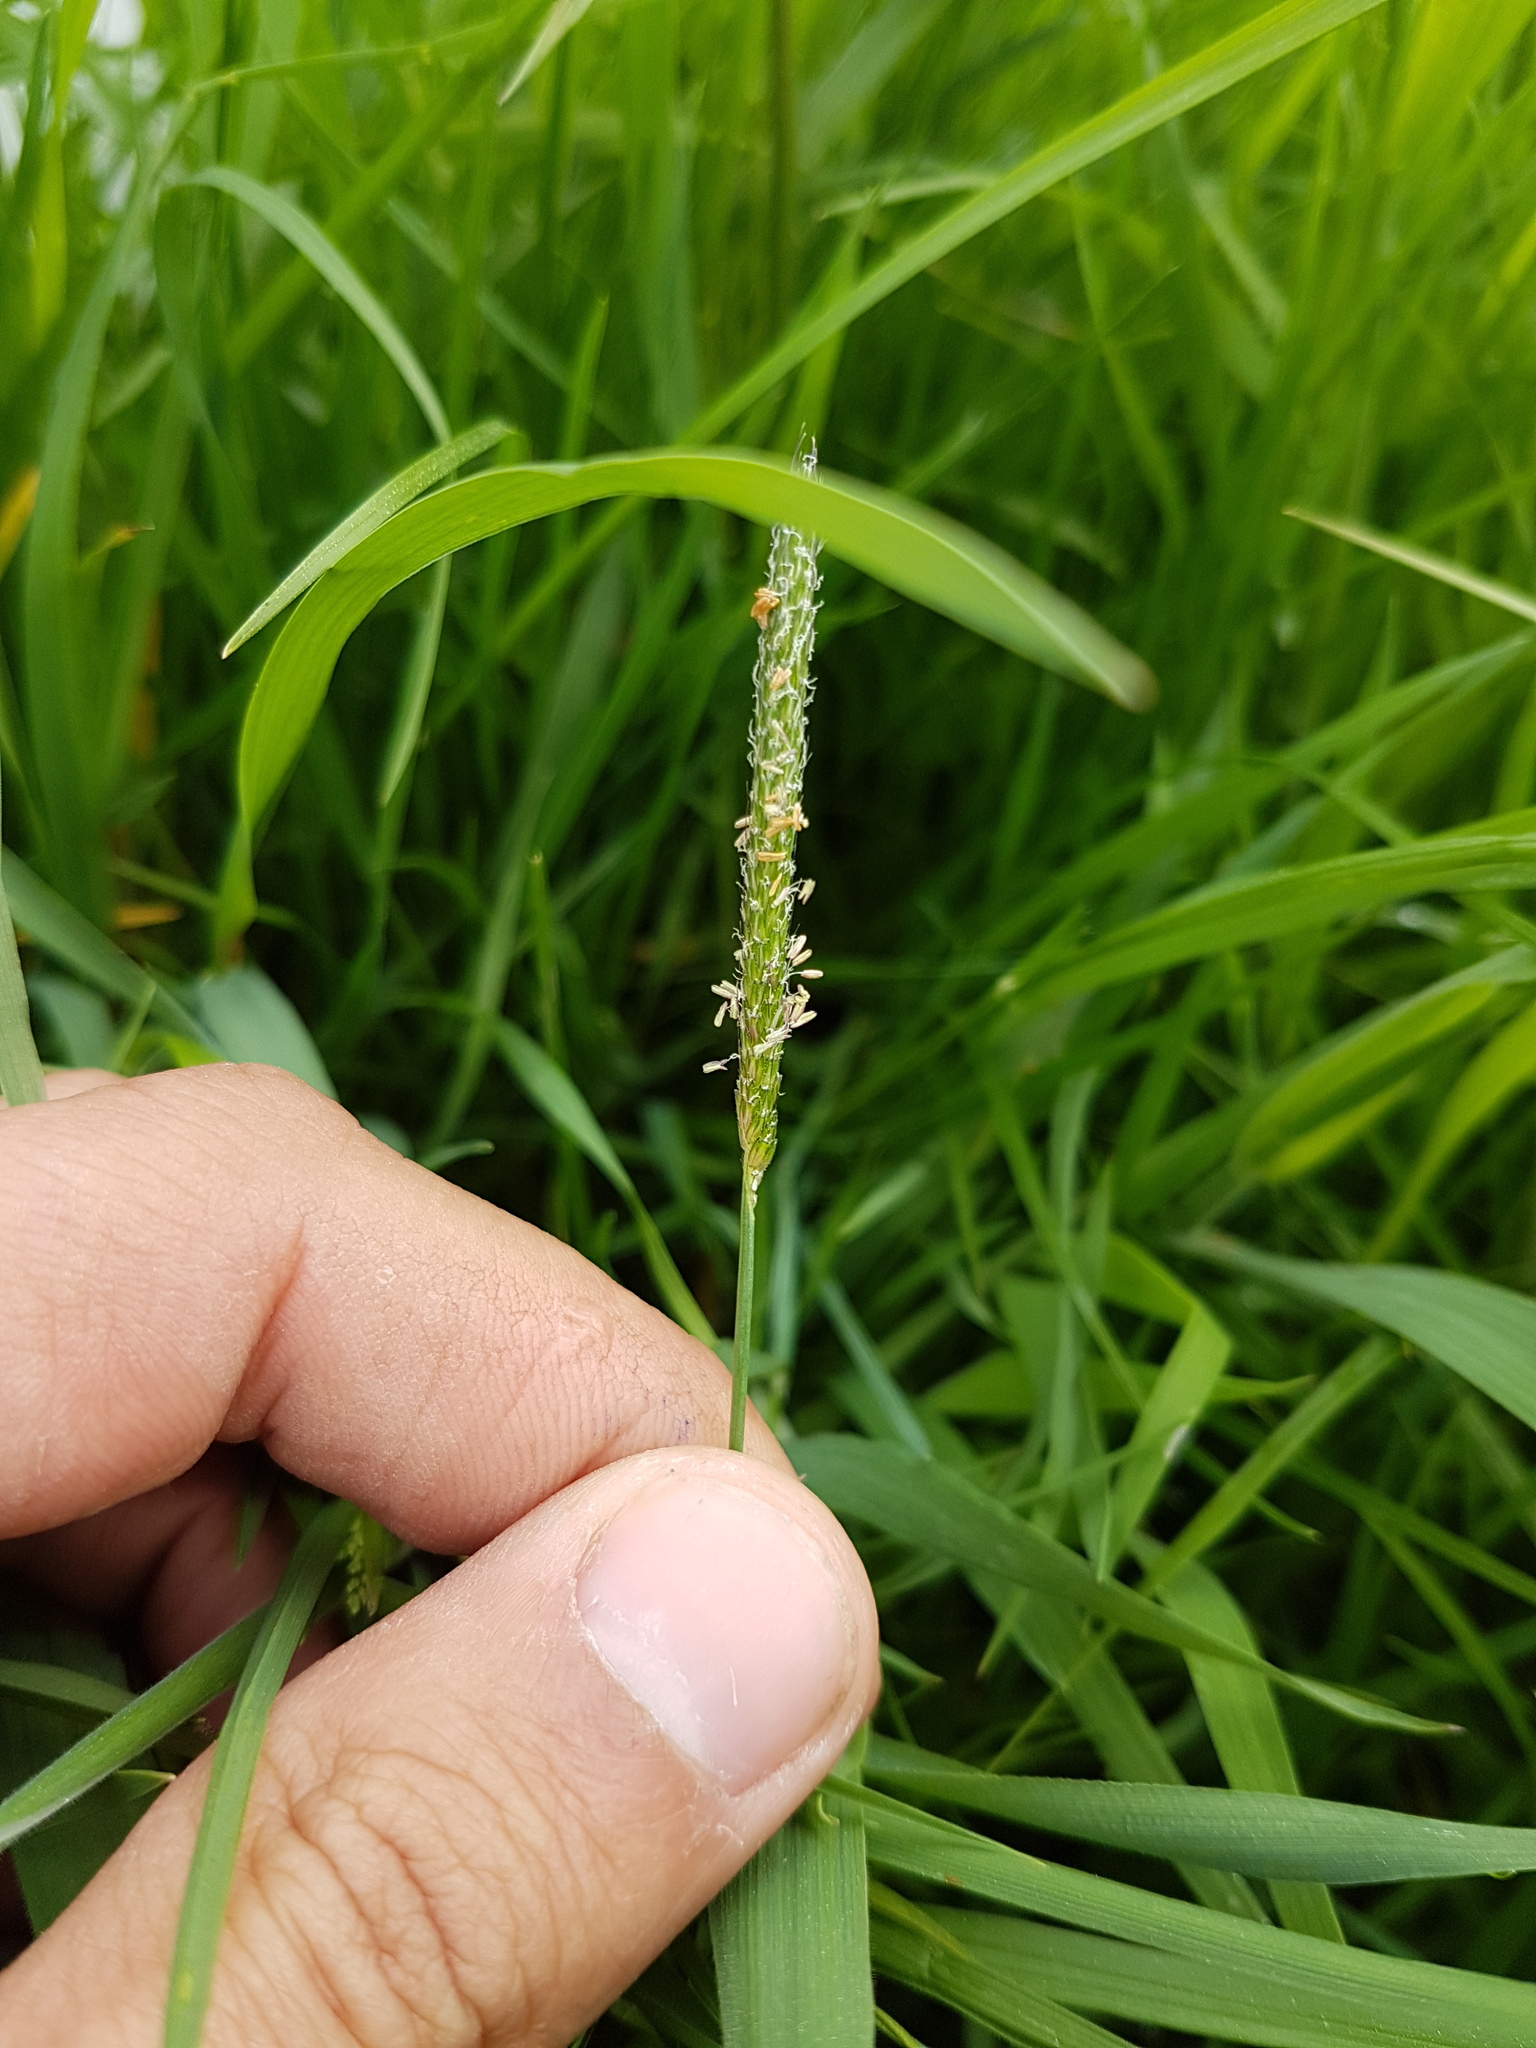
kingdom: Plantae
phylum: Tracheophyta
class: Liliopsida
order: Poales
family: Poaceae
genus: Alopecurus
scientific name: Alopecurus geniculatus
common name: Water foxtail
